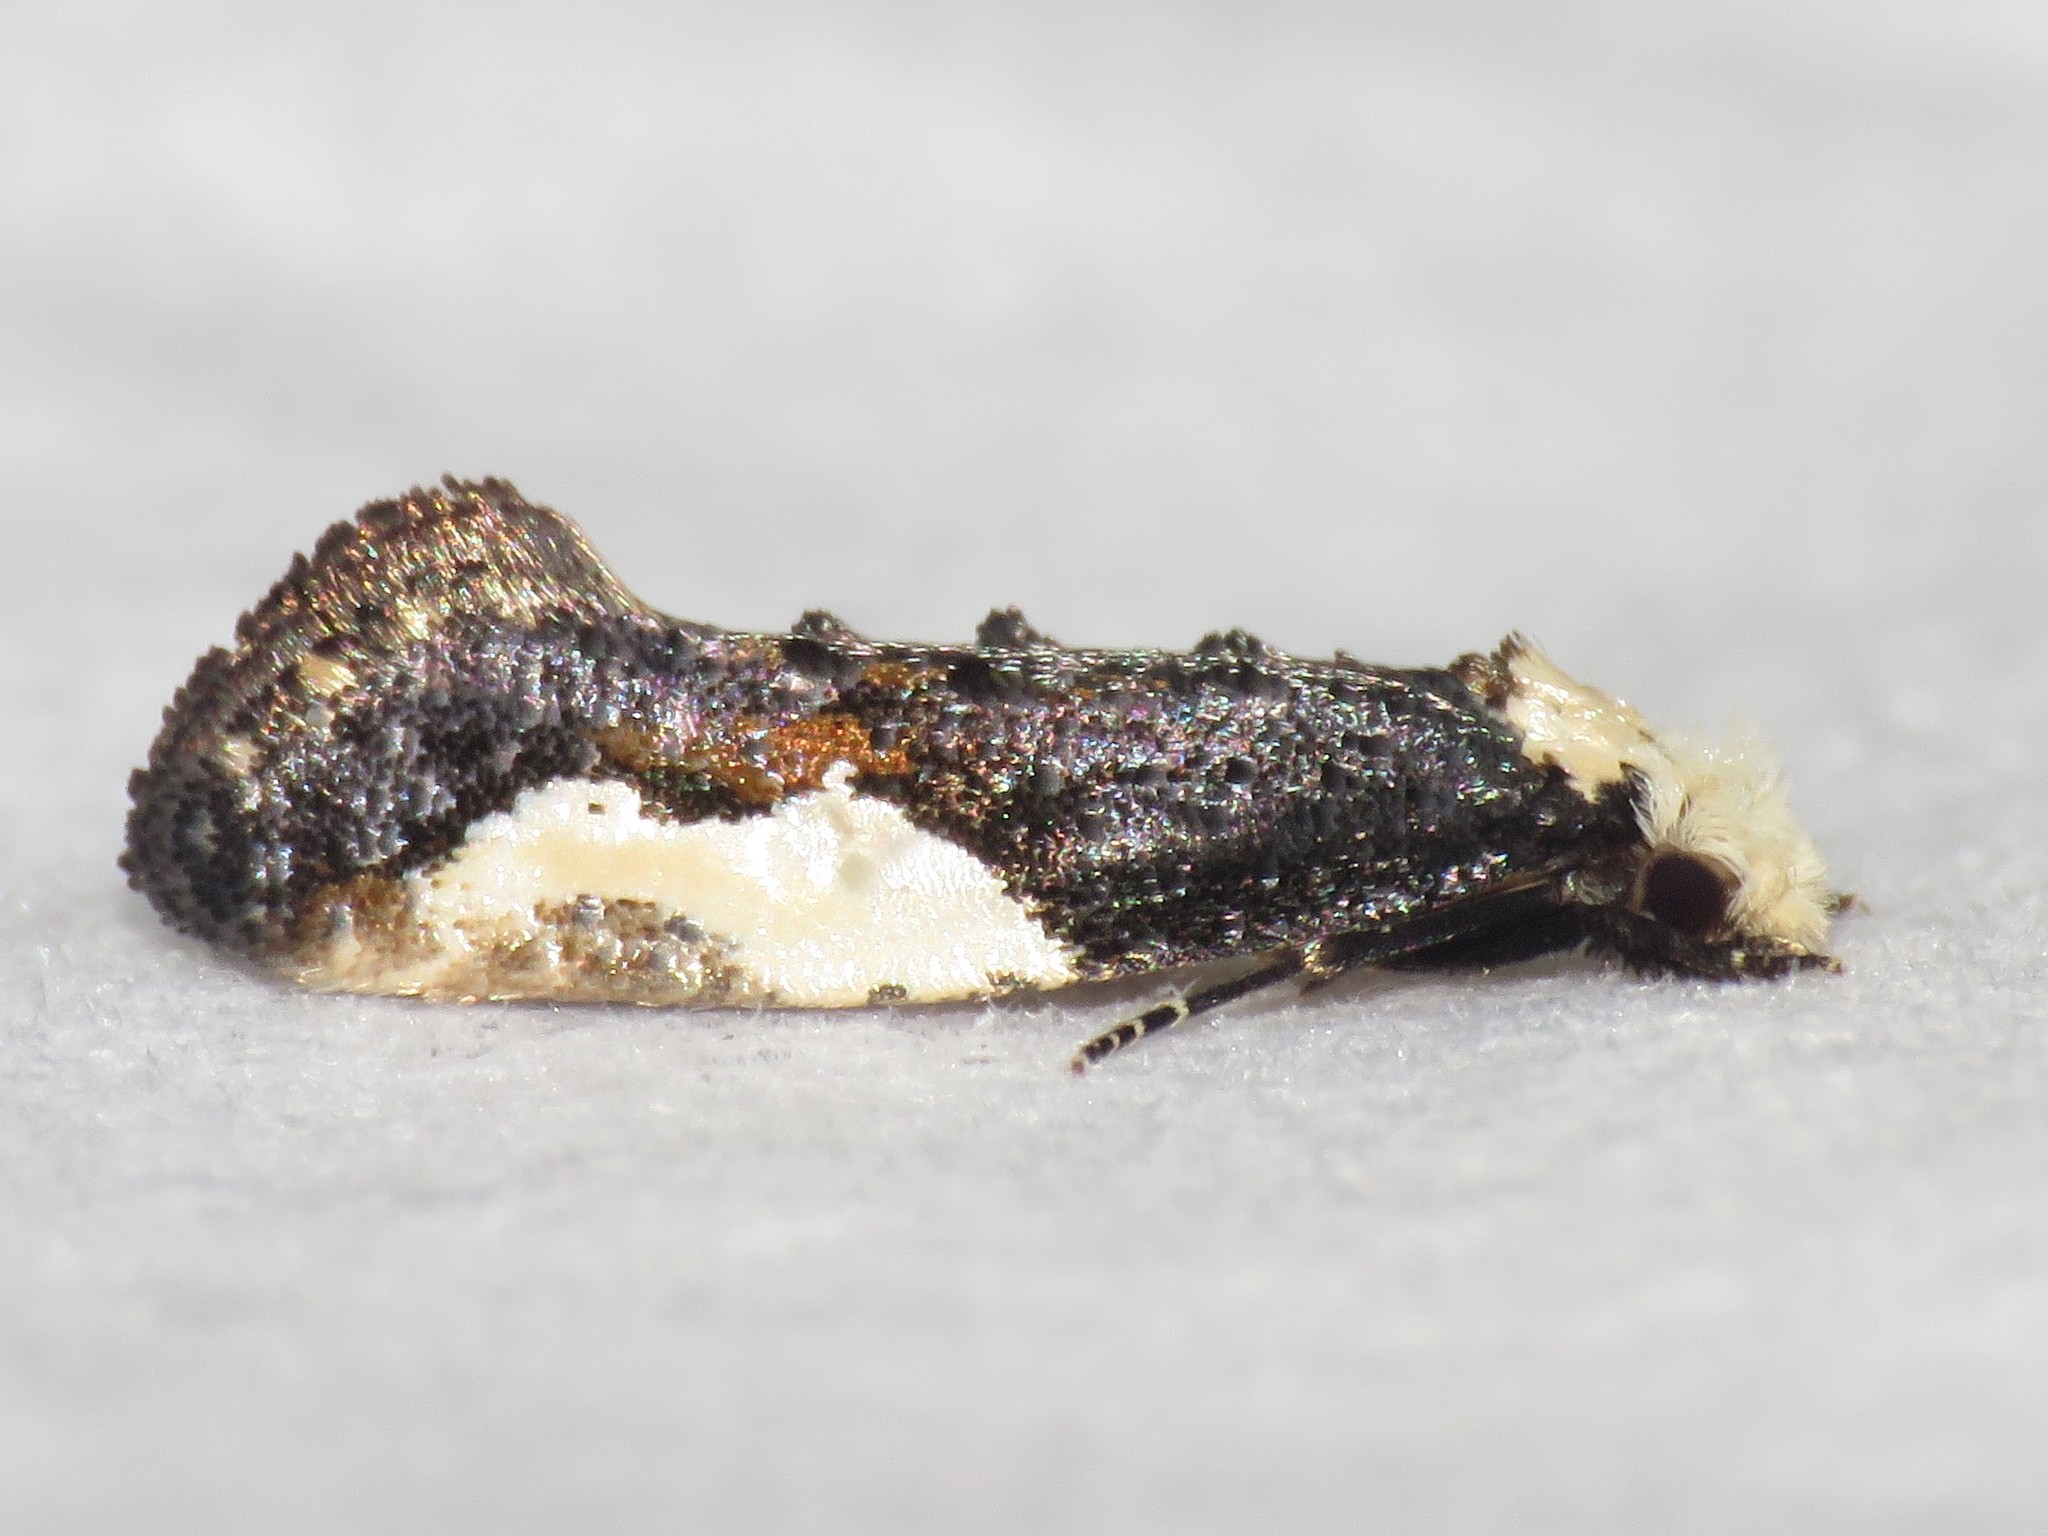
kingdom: Animalia
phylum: Arthropoda
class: Insecta
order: Lepidoptera
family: Tineidae
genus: Monopis
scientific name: Monopis longella
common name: Pavlovski's monopis moth
